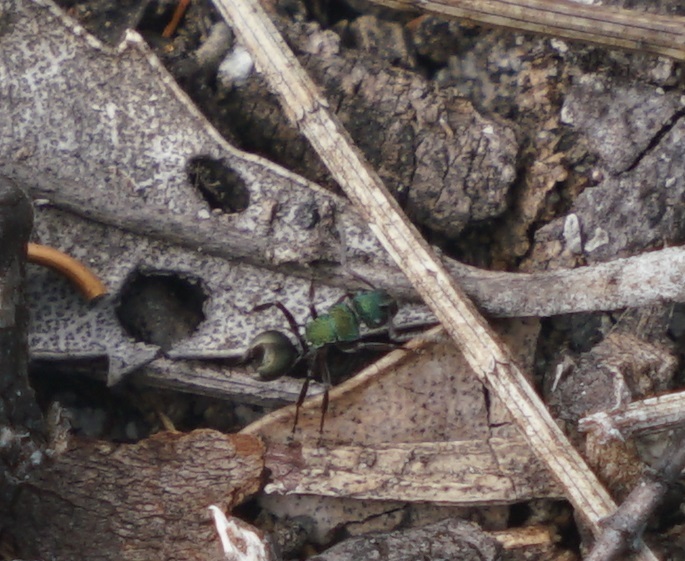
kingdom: Animalia
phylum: Arthropoda
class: Insecta
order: Hymenoptera
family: Formicidae
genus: Polyrhachis
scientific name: Polyrhachis hookeri
